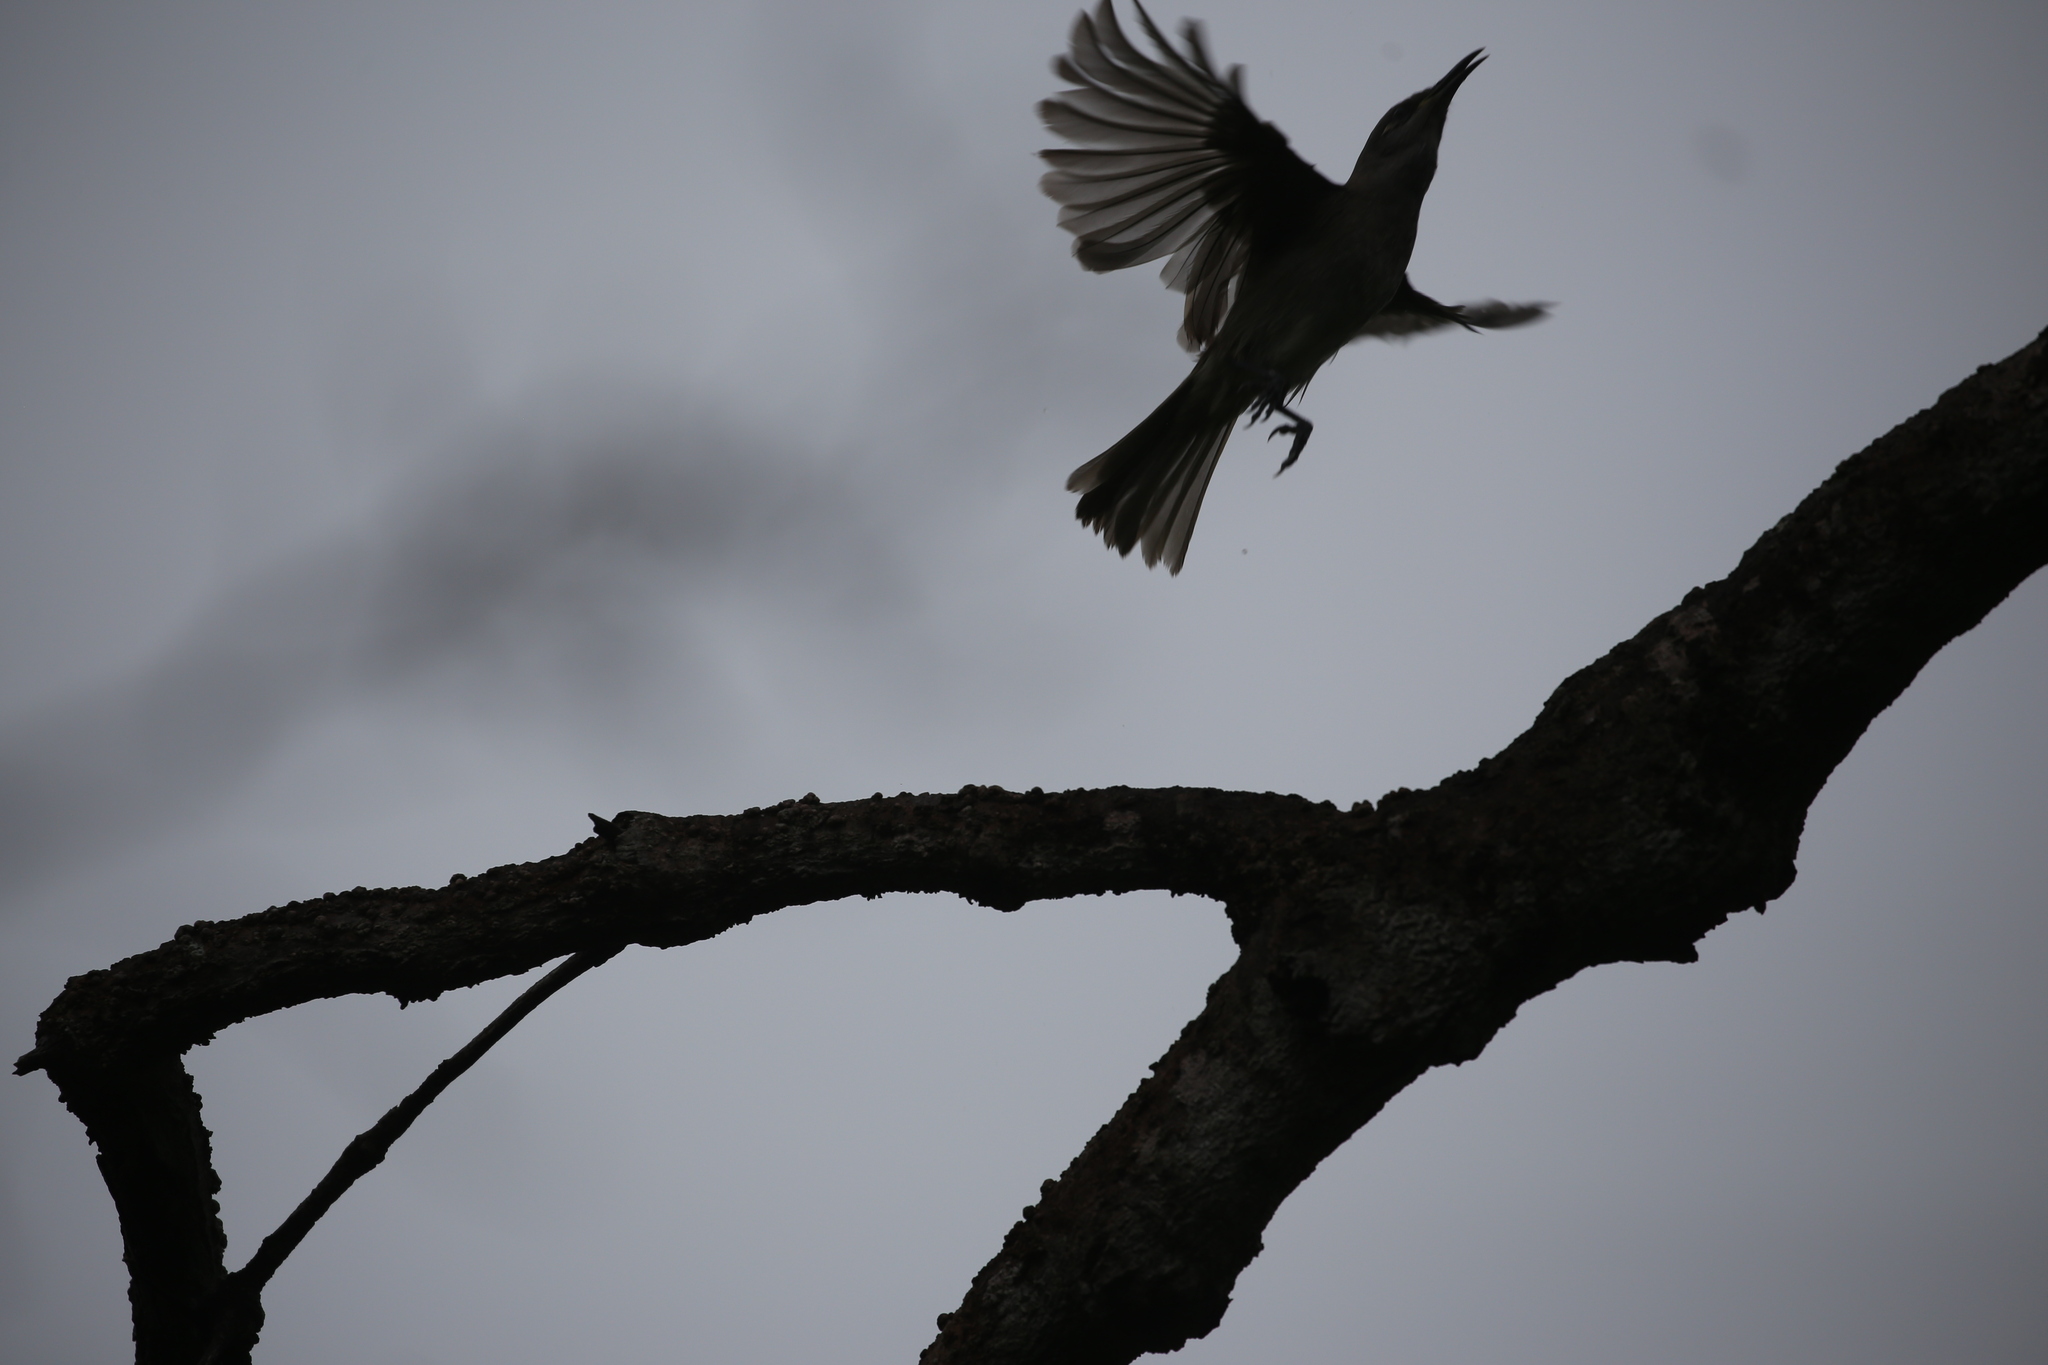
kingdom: Animalia
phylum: Chordata
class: Aves
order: Passeriformes
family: Meliphagidae
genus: Lichmera
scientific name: Lichmera indistincta
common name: Brown honeyeater
